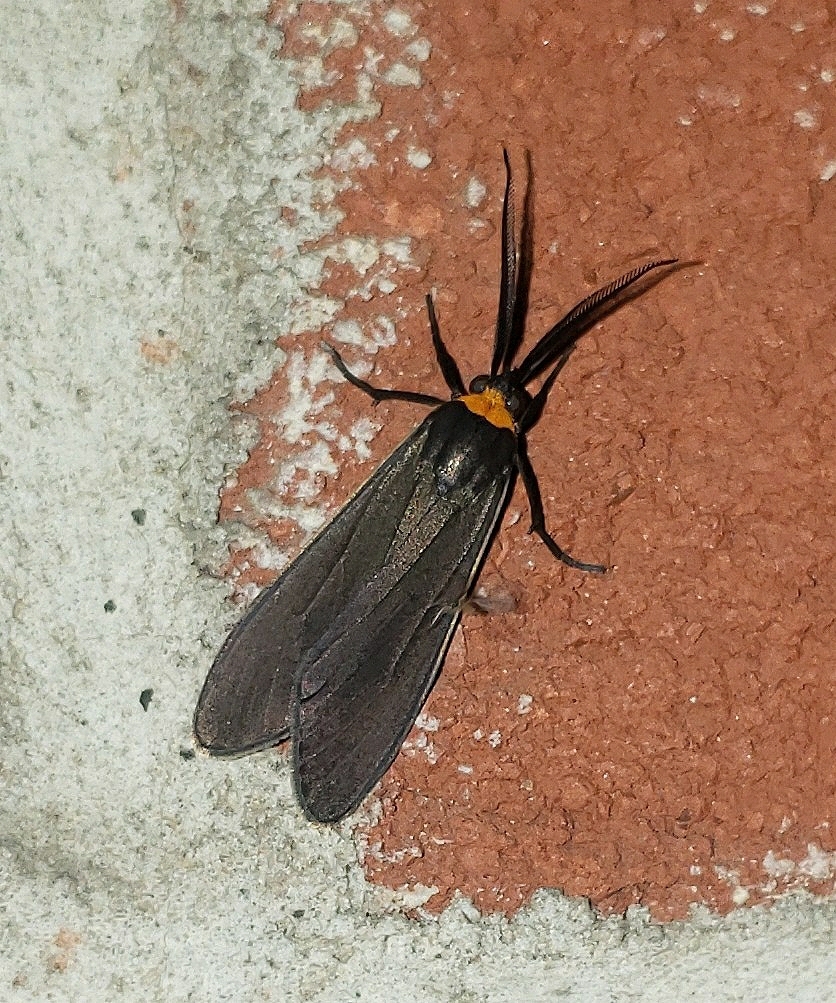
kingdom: Animalia
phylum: Arthropoda
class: Insecta
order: Lepidoptera
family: Erebidae
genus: Cisseps
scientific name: Cisseps fulvicollis
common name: Yellow-collared scape moth
